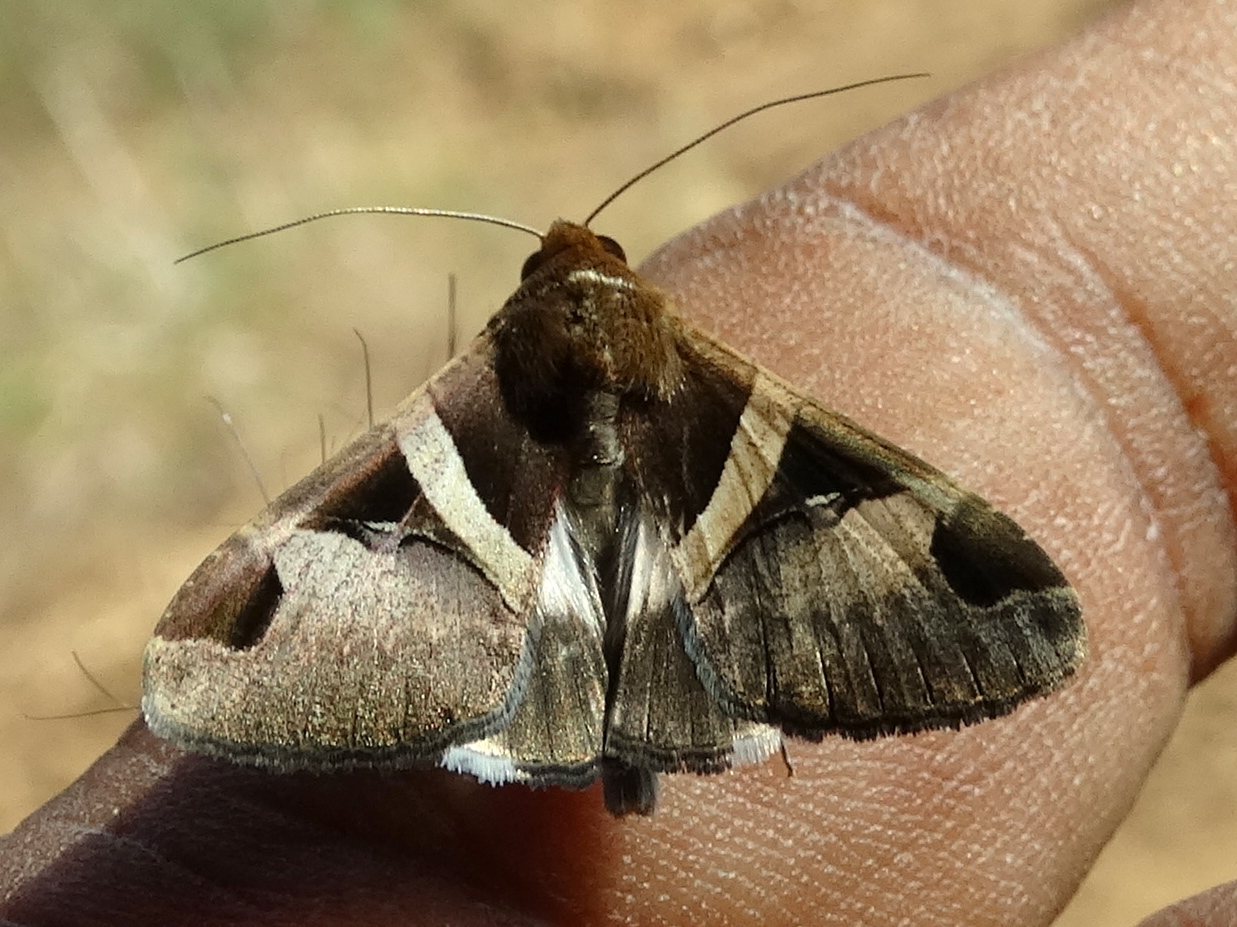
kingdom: Animalia
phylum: Arthropoda
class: Insecta
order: Lepidoptera
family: Erebidae
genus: Melipotis
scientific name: Melipotis fasciolaris
